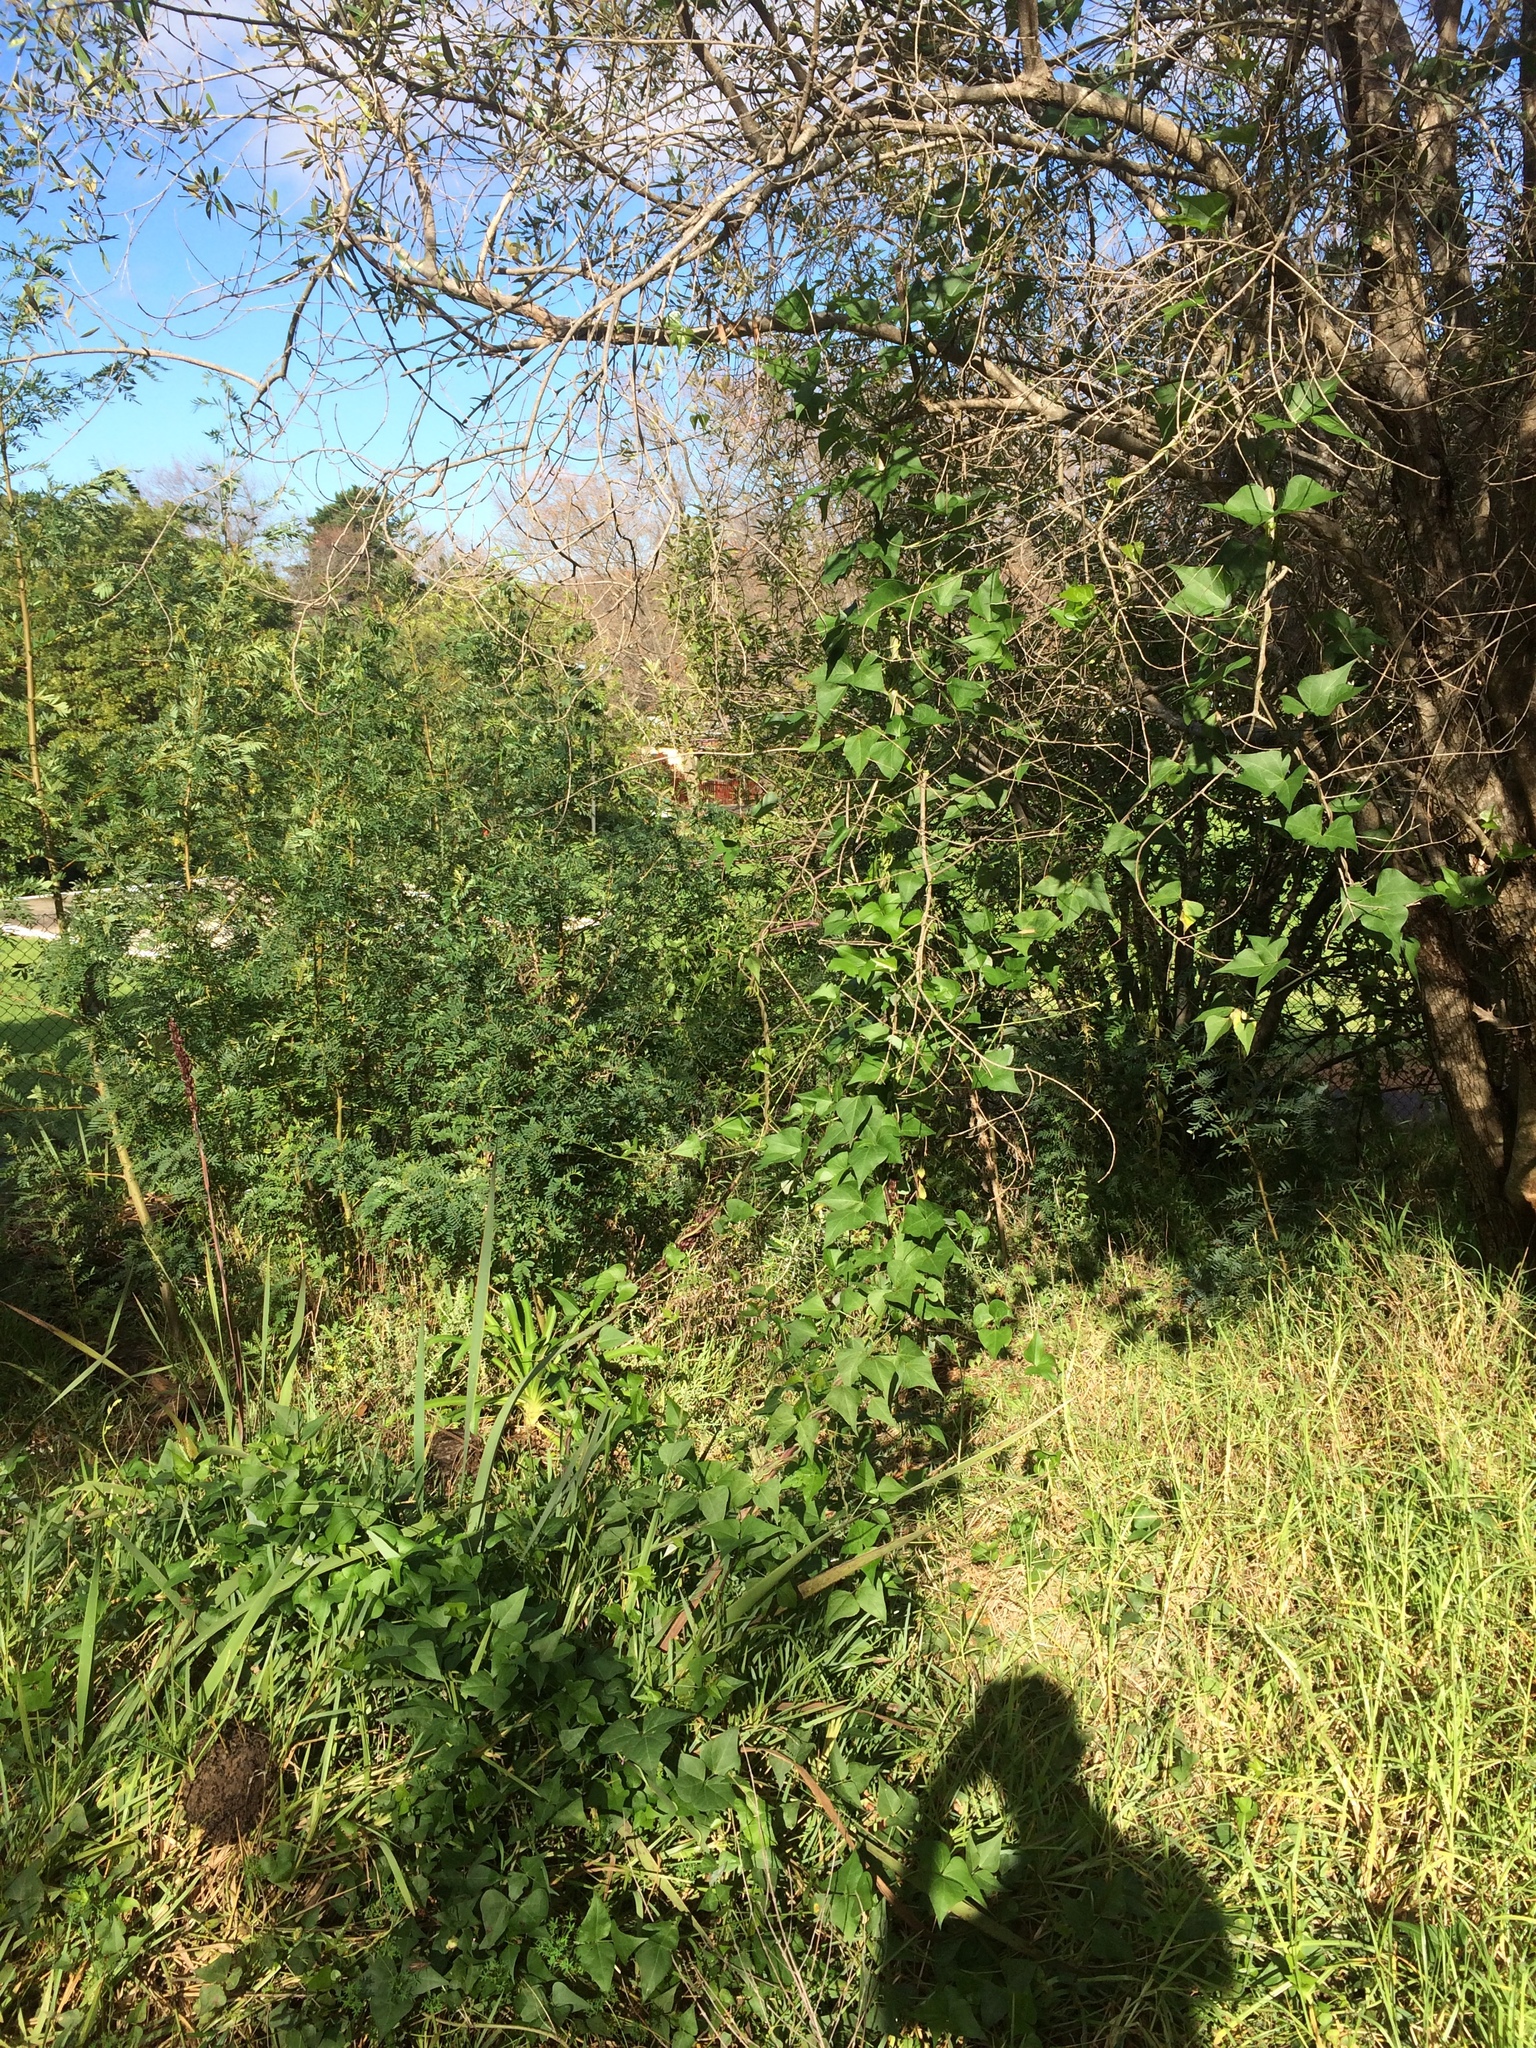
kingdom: Plantae
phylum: Tracheophyta
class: Magnoliopsida
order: Fabales
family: Fabaceae
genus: Dipogon
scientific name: Dipogon lignosus
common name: Okie bean
